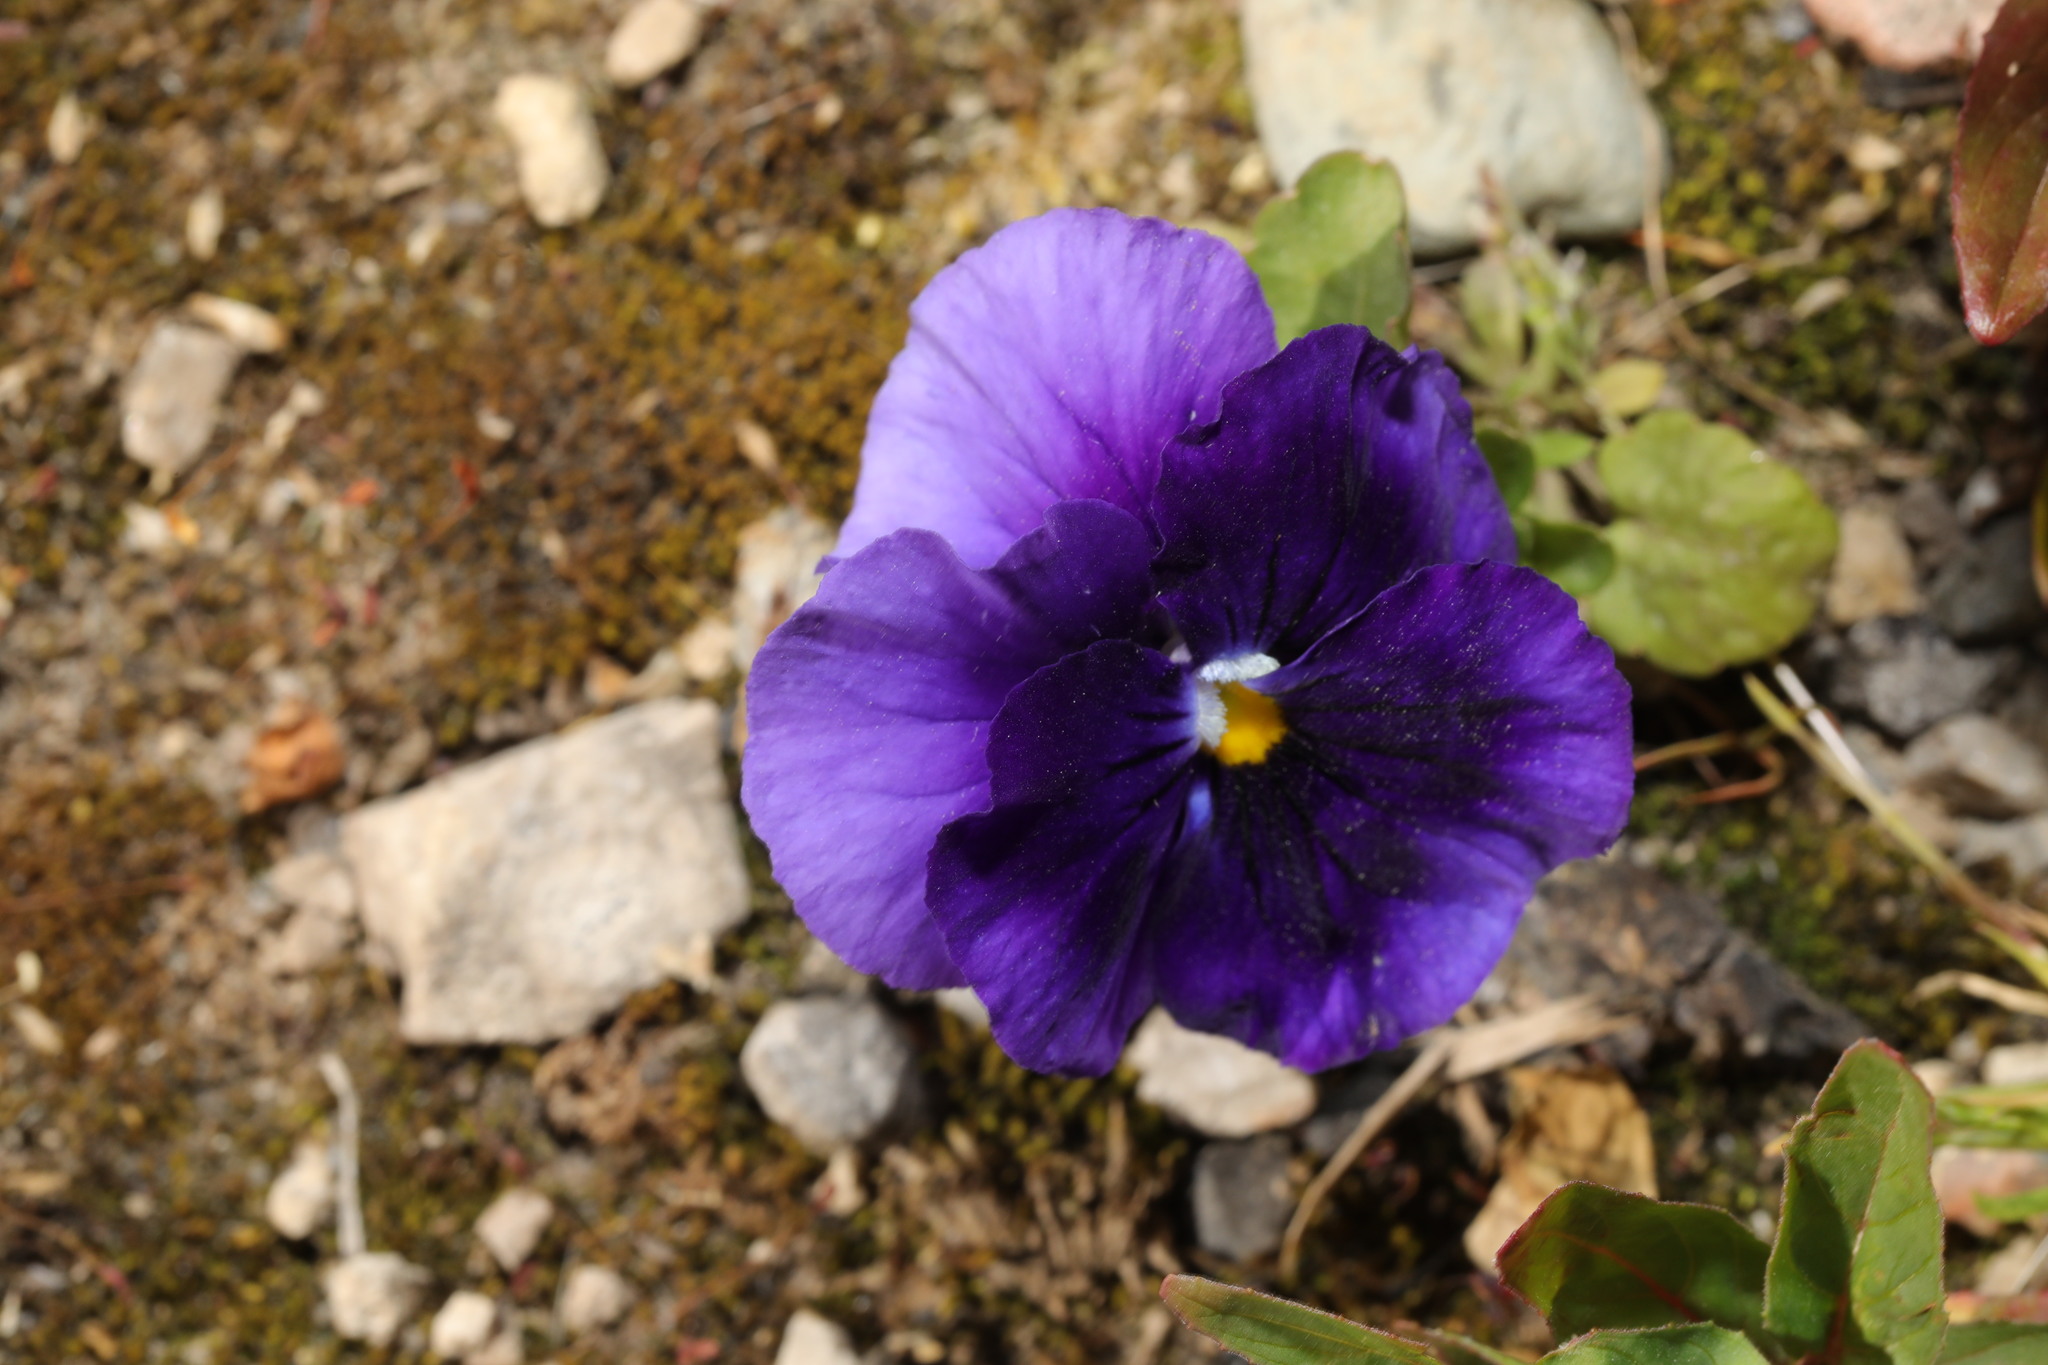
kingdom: Plantae
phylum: Tracheophyta
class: Magnoliopsida
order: Malpighiales
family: Violaceae
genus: Viola
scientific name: Viola wittrockiana
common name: Garden pansy
